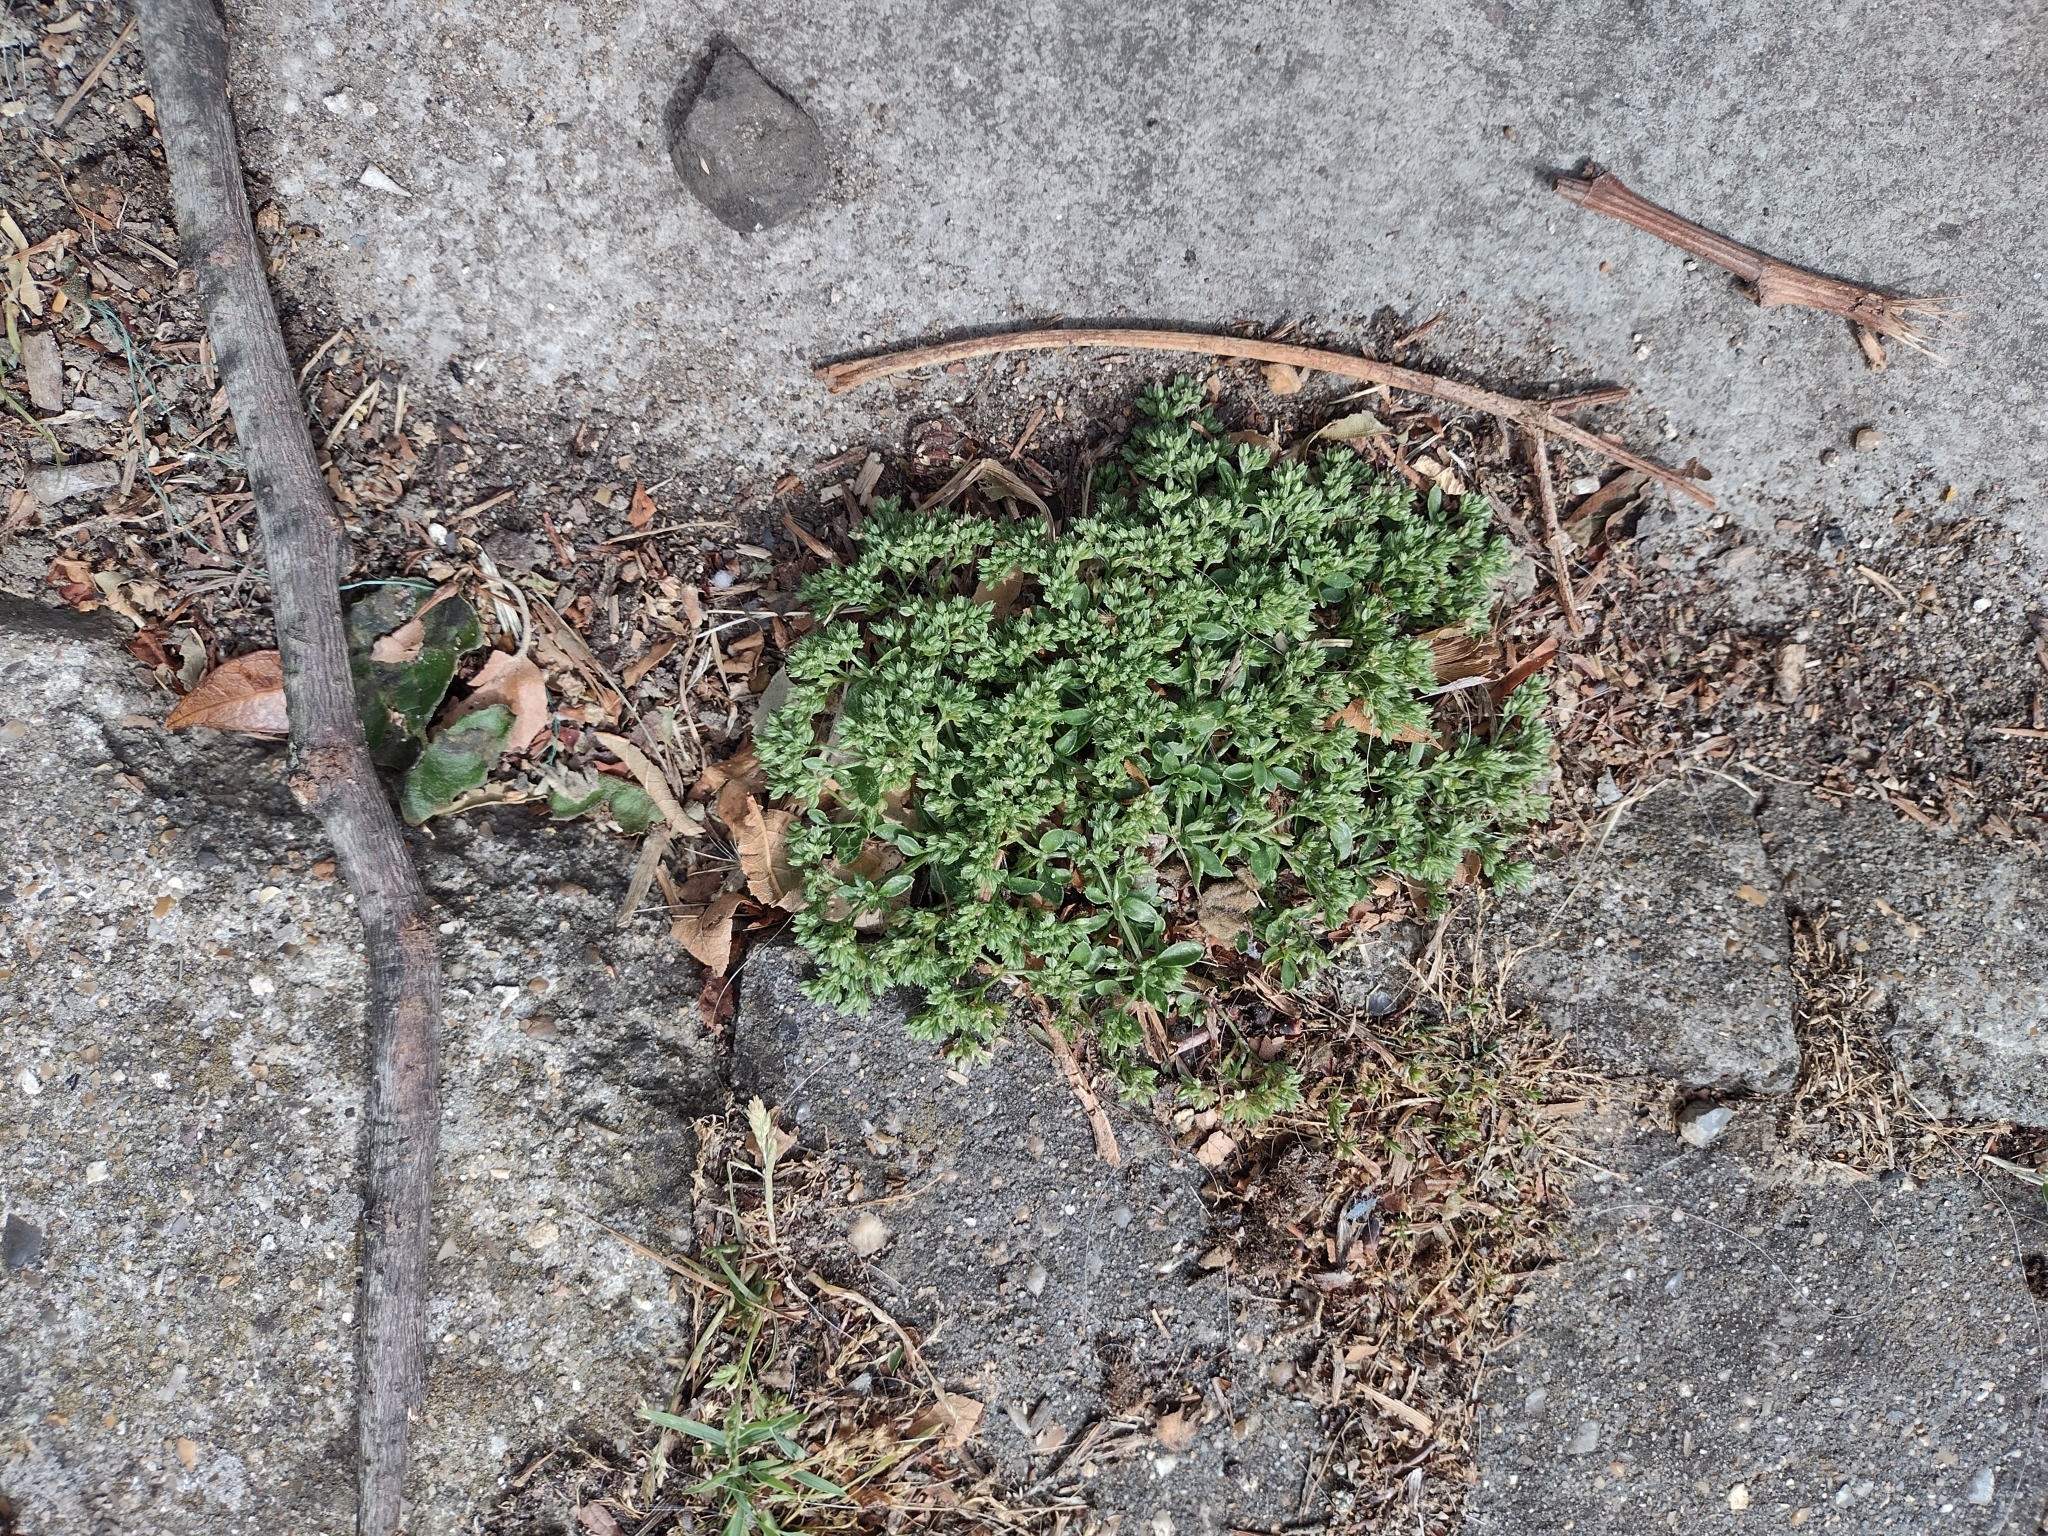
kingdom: Plantae
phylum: Tracheophyta
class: Magnoliopsida
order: Caryophyllales
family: Caryophyllaceae
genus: Polycarpon
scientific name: Polycarpon tetraphyllum
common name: Four-leaved all-seed
